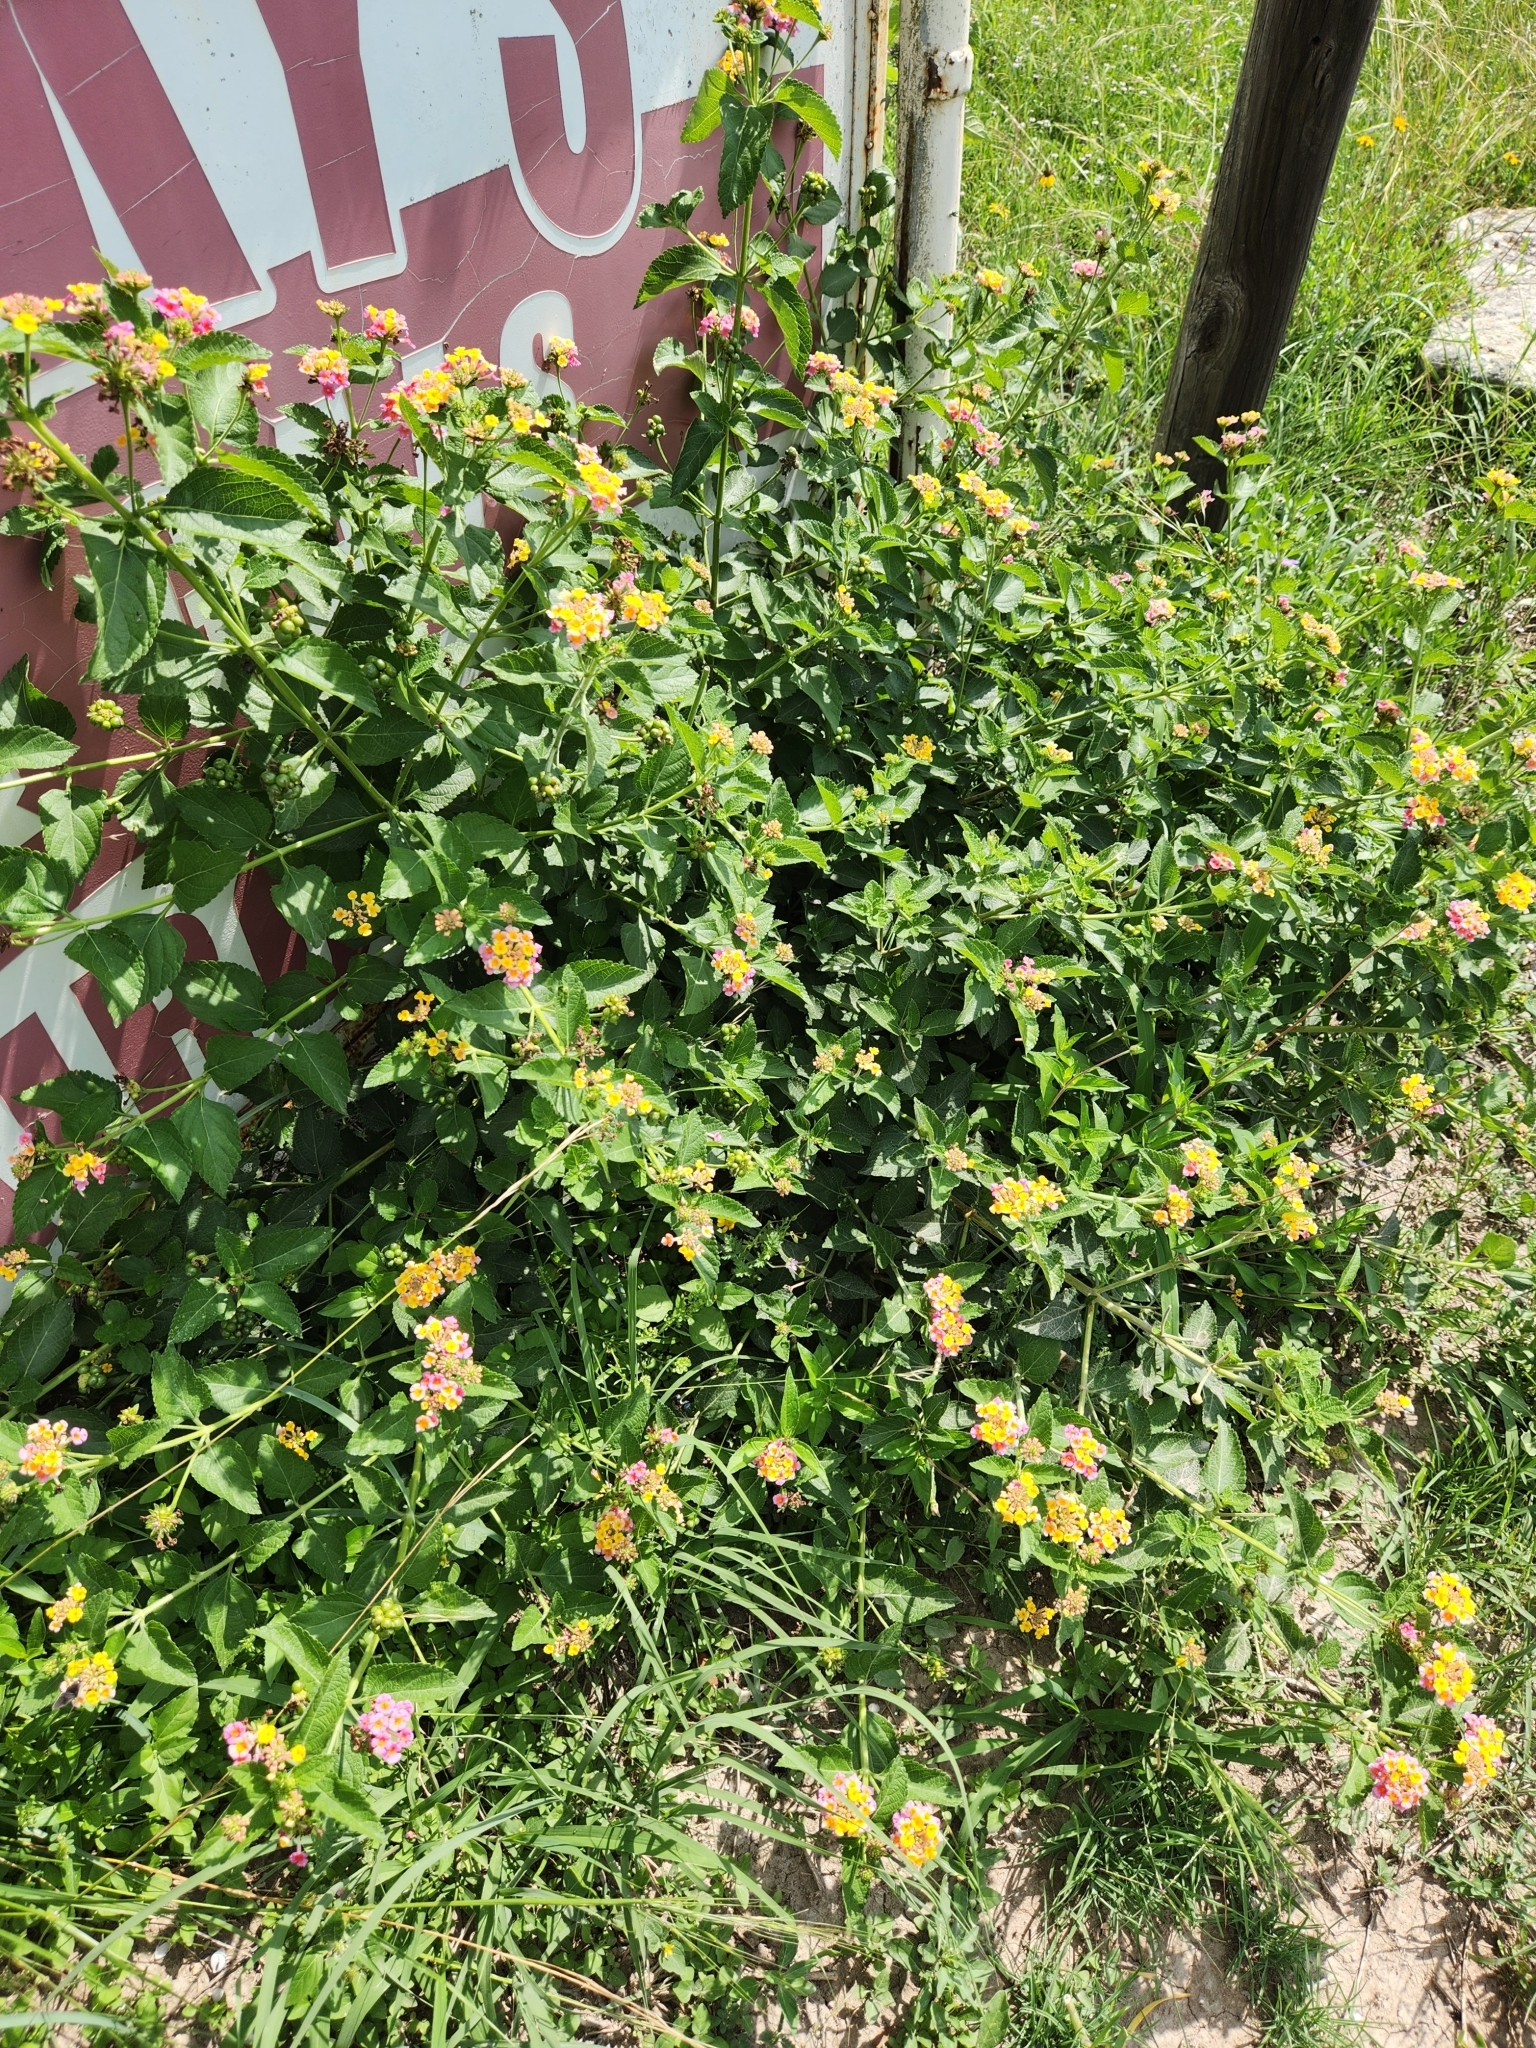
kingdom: Plantae
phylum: Tracheophyta
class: Magnoliopsida
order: Lamiales
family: Verbenaceae
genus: Lantana
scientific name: Lantana strigocamara
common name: Lantana
